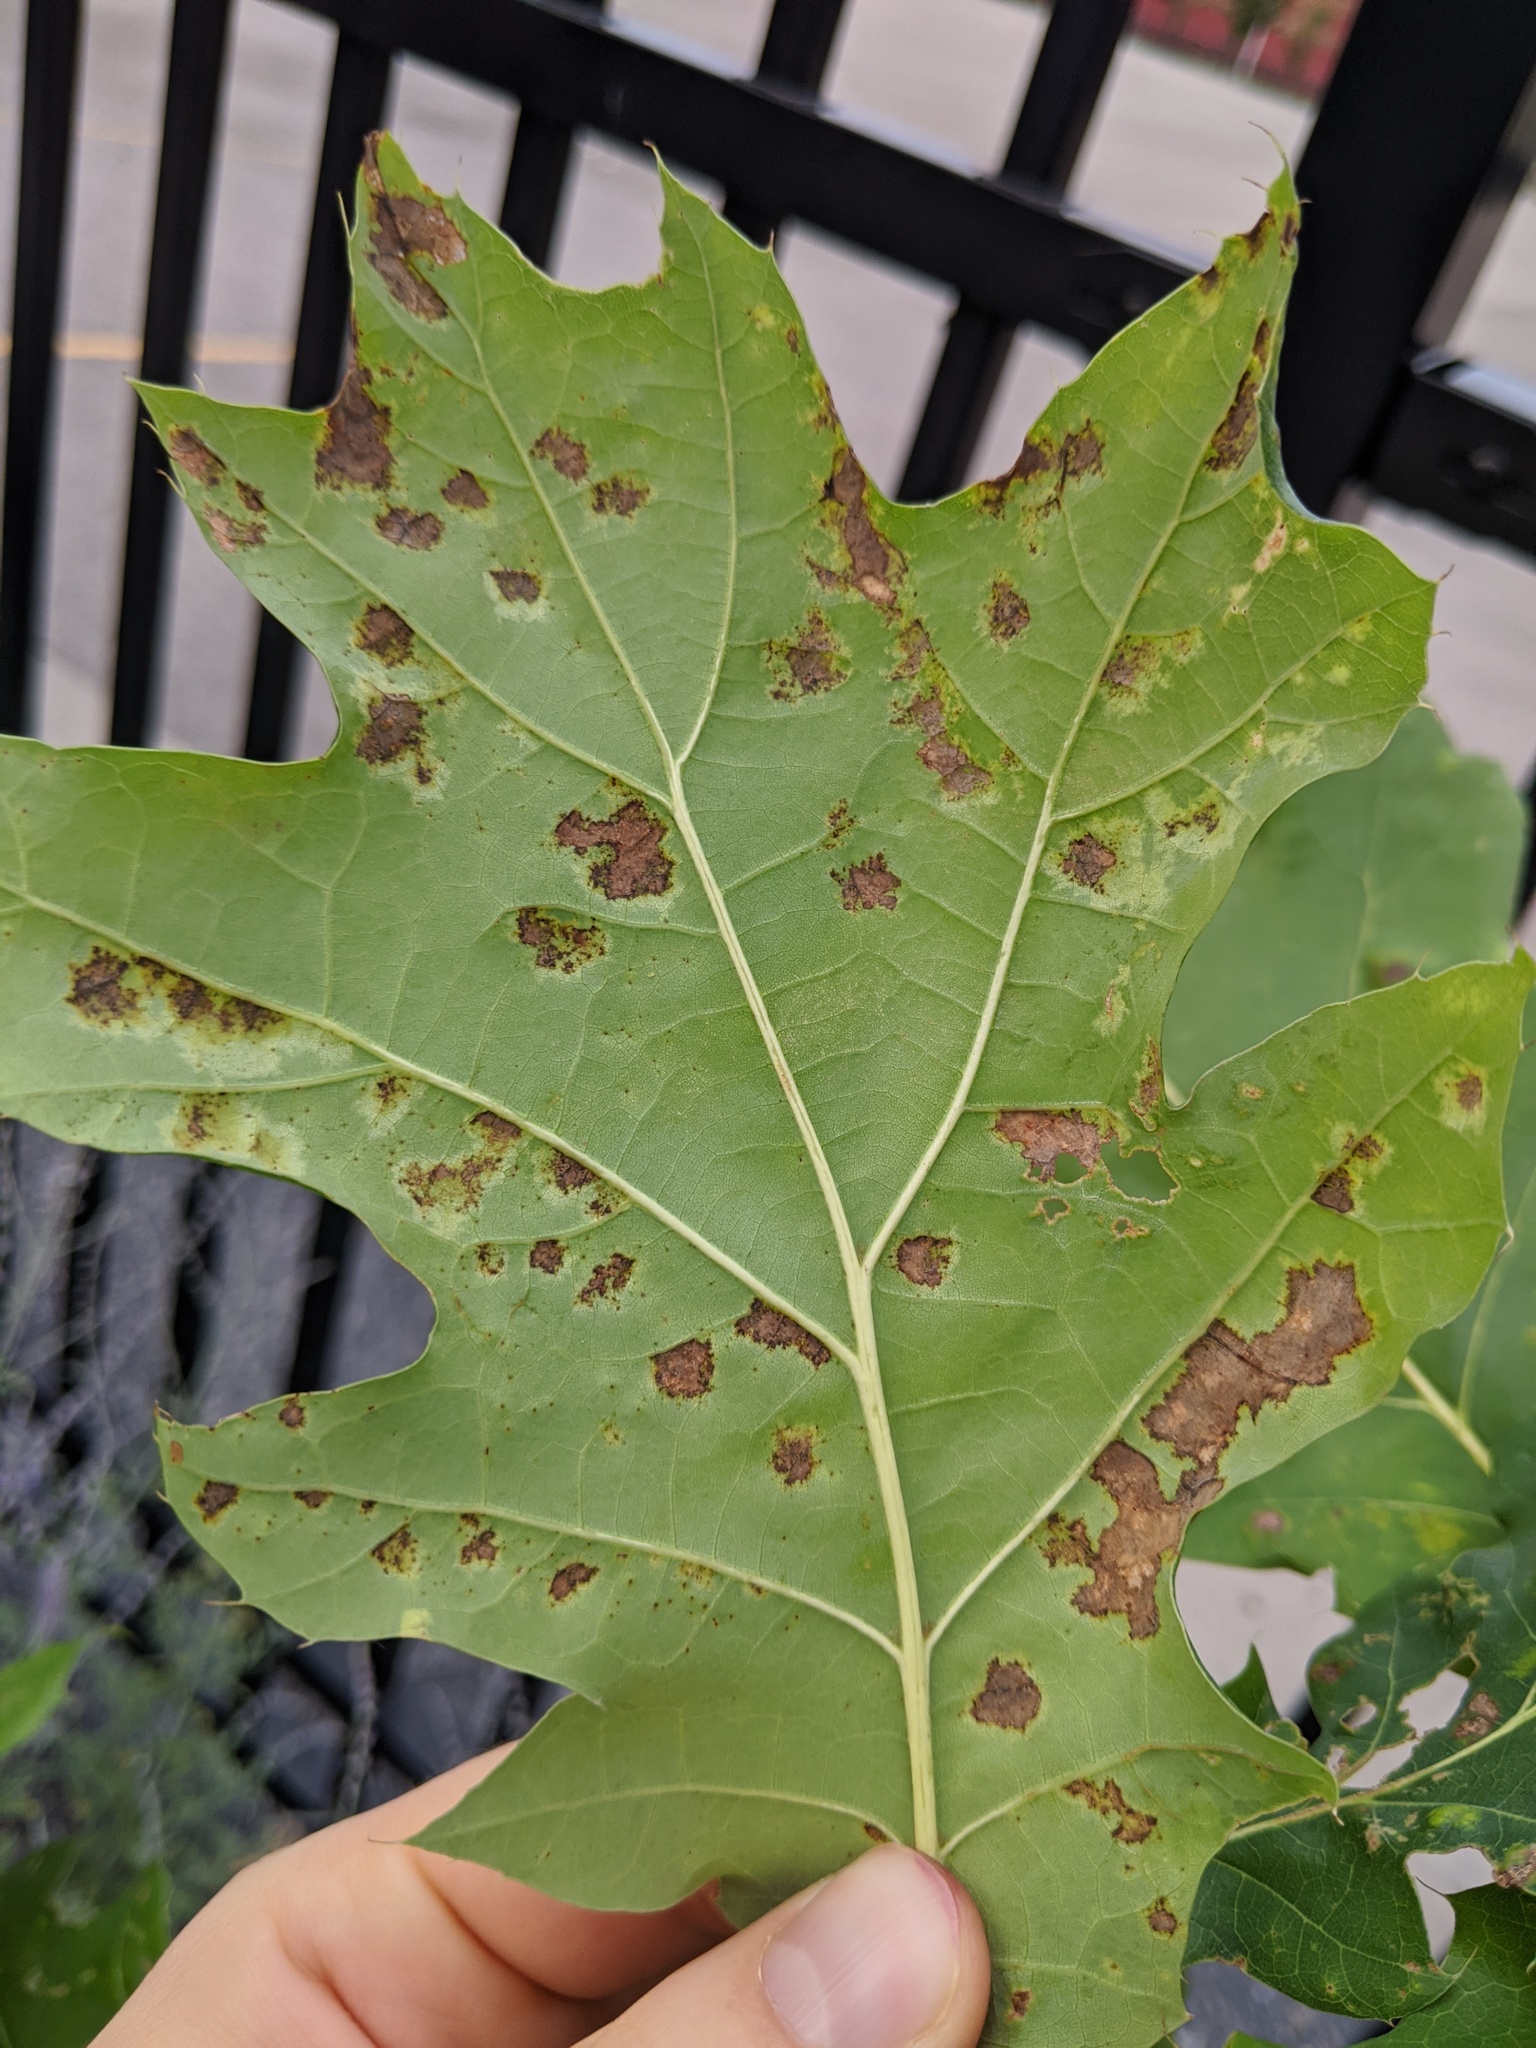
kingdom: Fungi
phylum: Ascomycota
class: Taphrinomycetes
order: Taphrinales
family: Taphrinaceae
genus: Taphrina
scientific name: Taphrina caerulescens
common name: Oak leaf blister
